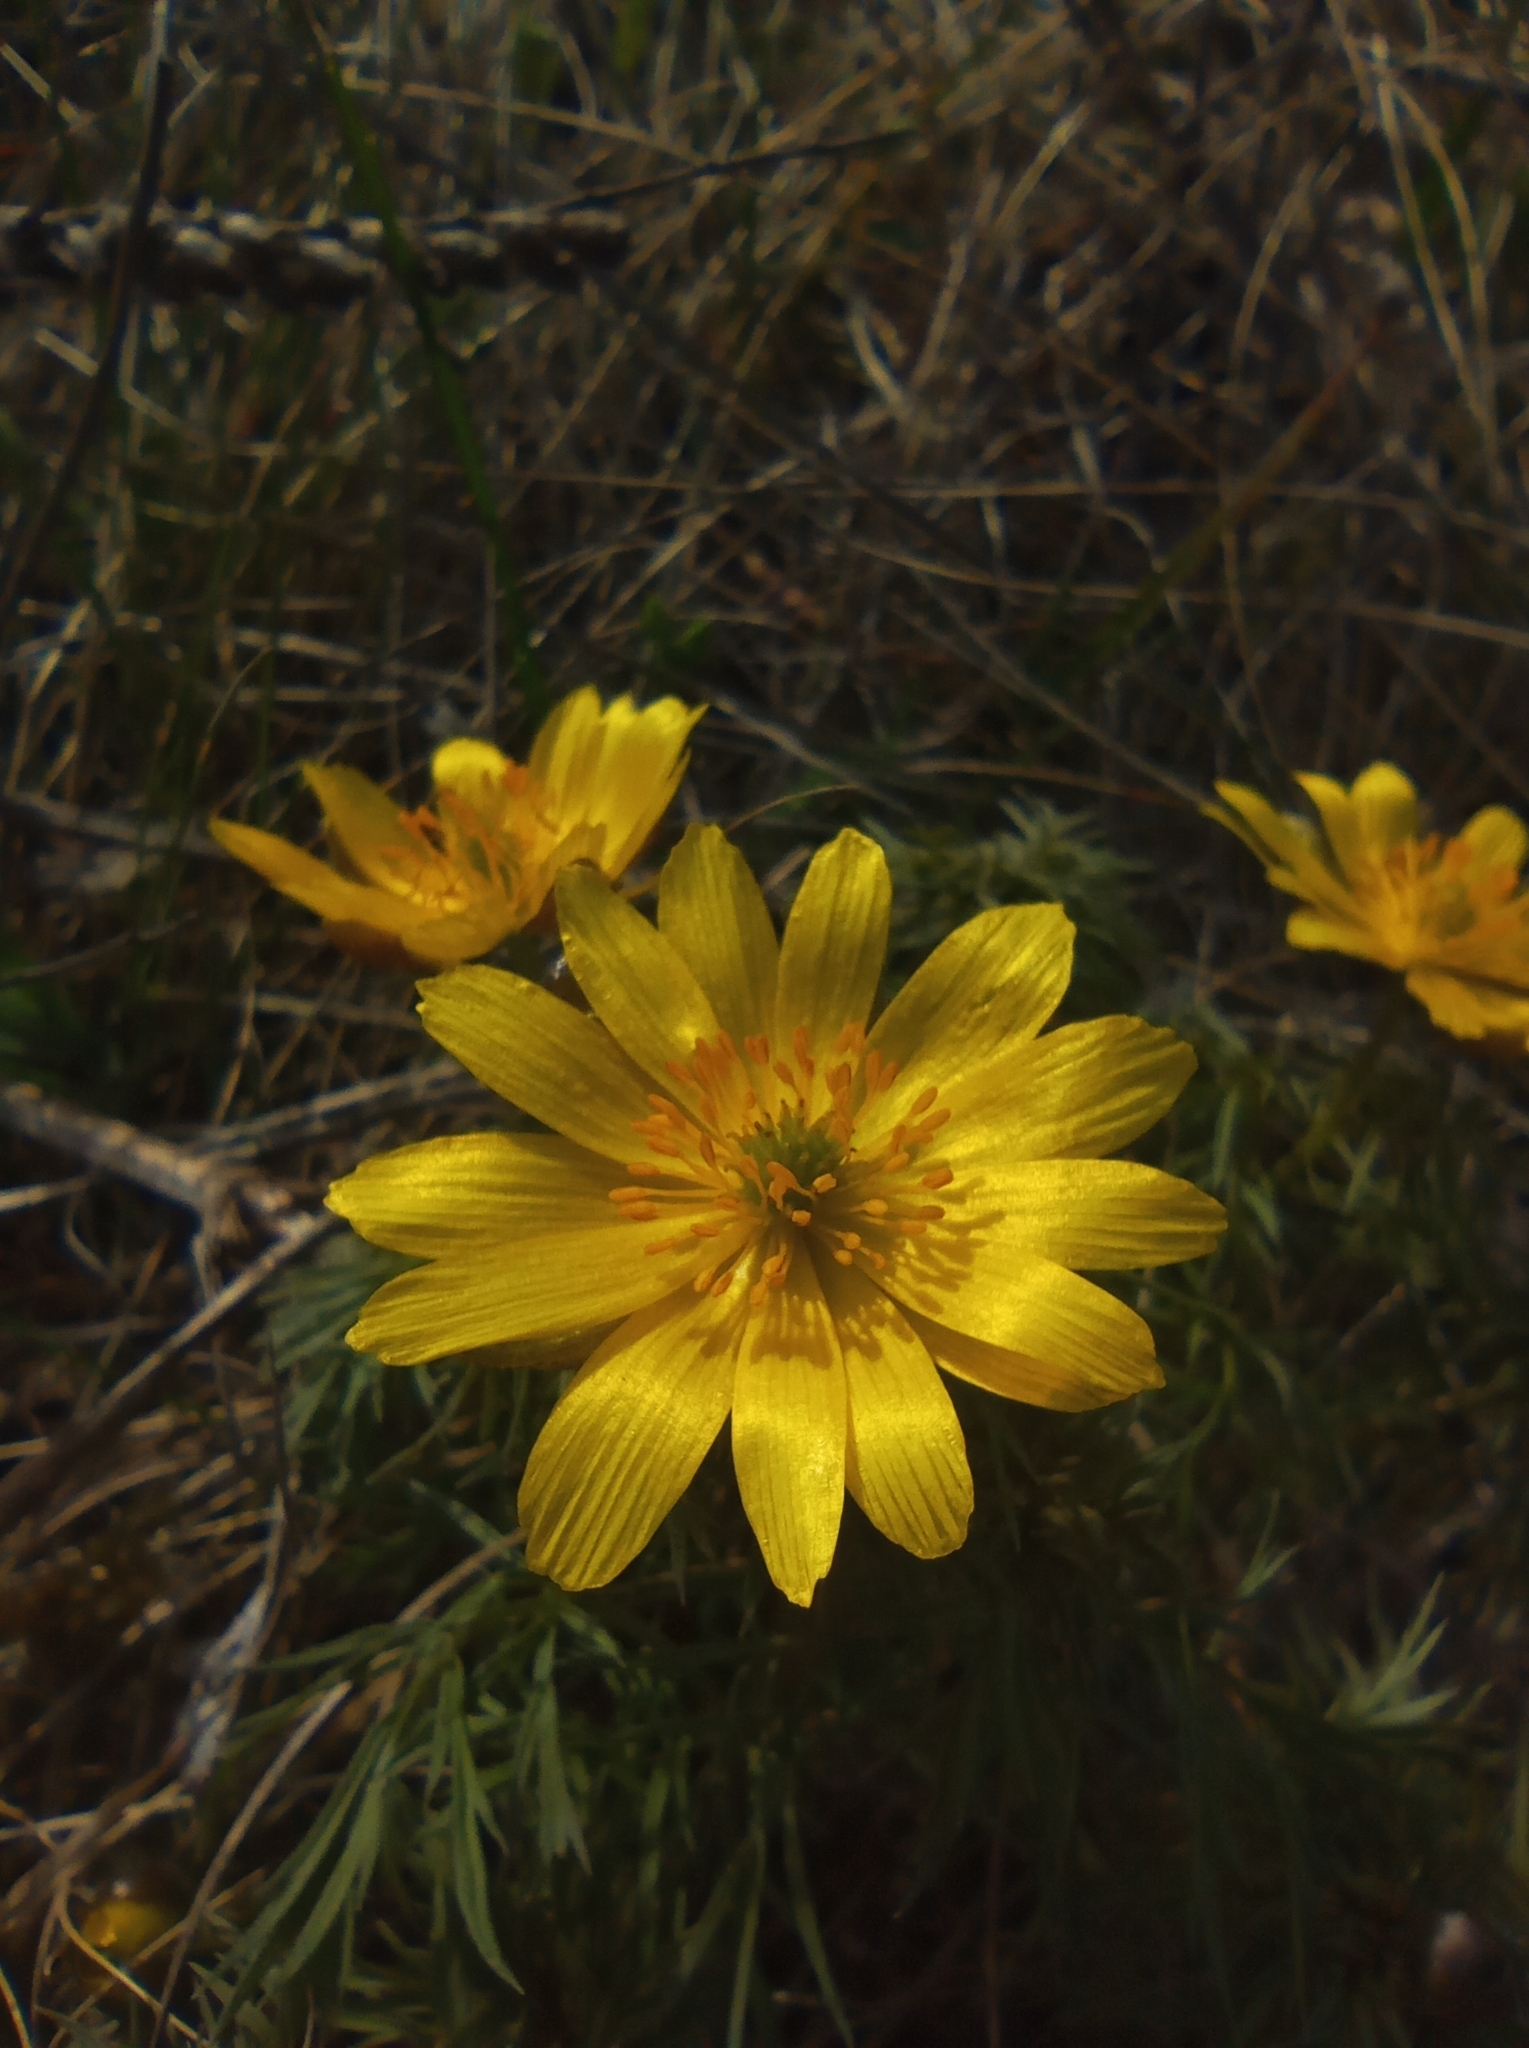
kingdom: Plantae
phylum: Tracheophyta
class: Magnoliopsida
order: Ranunculales
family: Ranunculaceae
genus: Adonis
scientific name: Adonis volgensis
